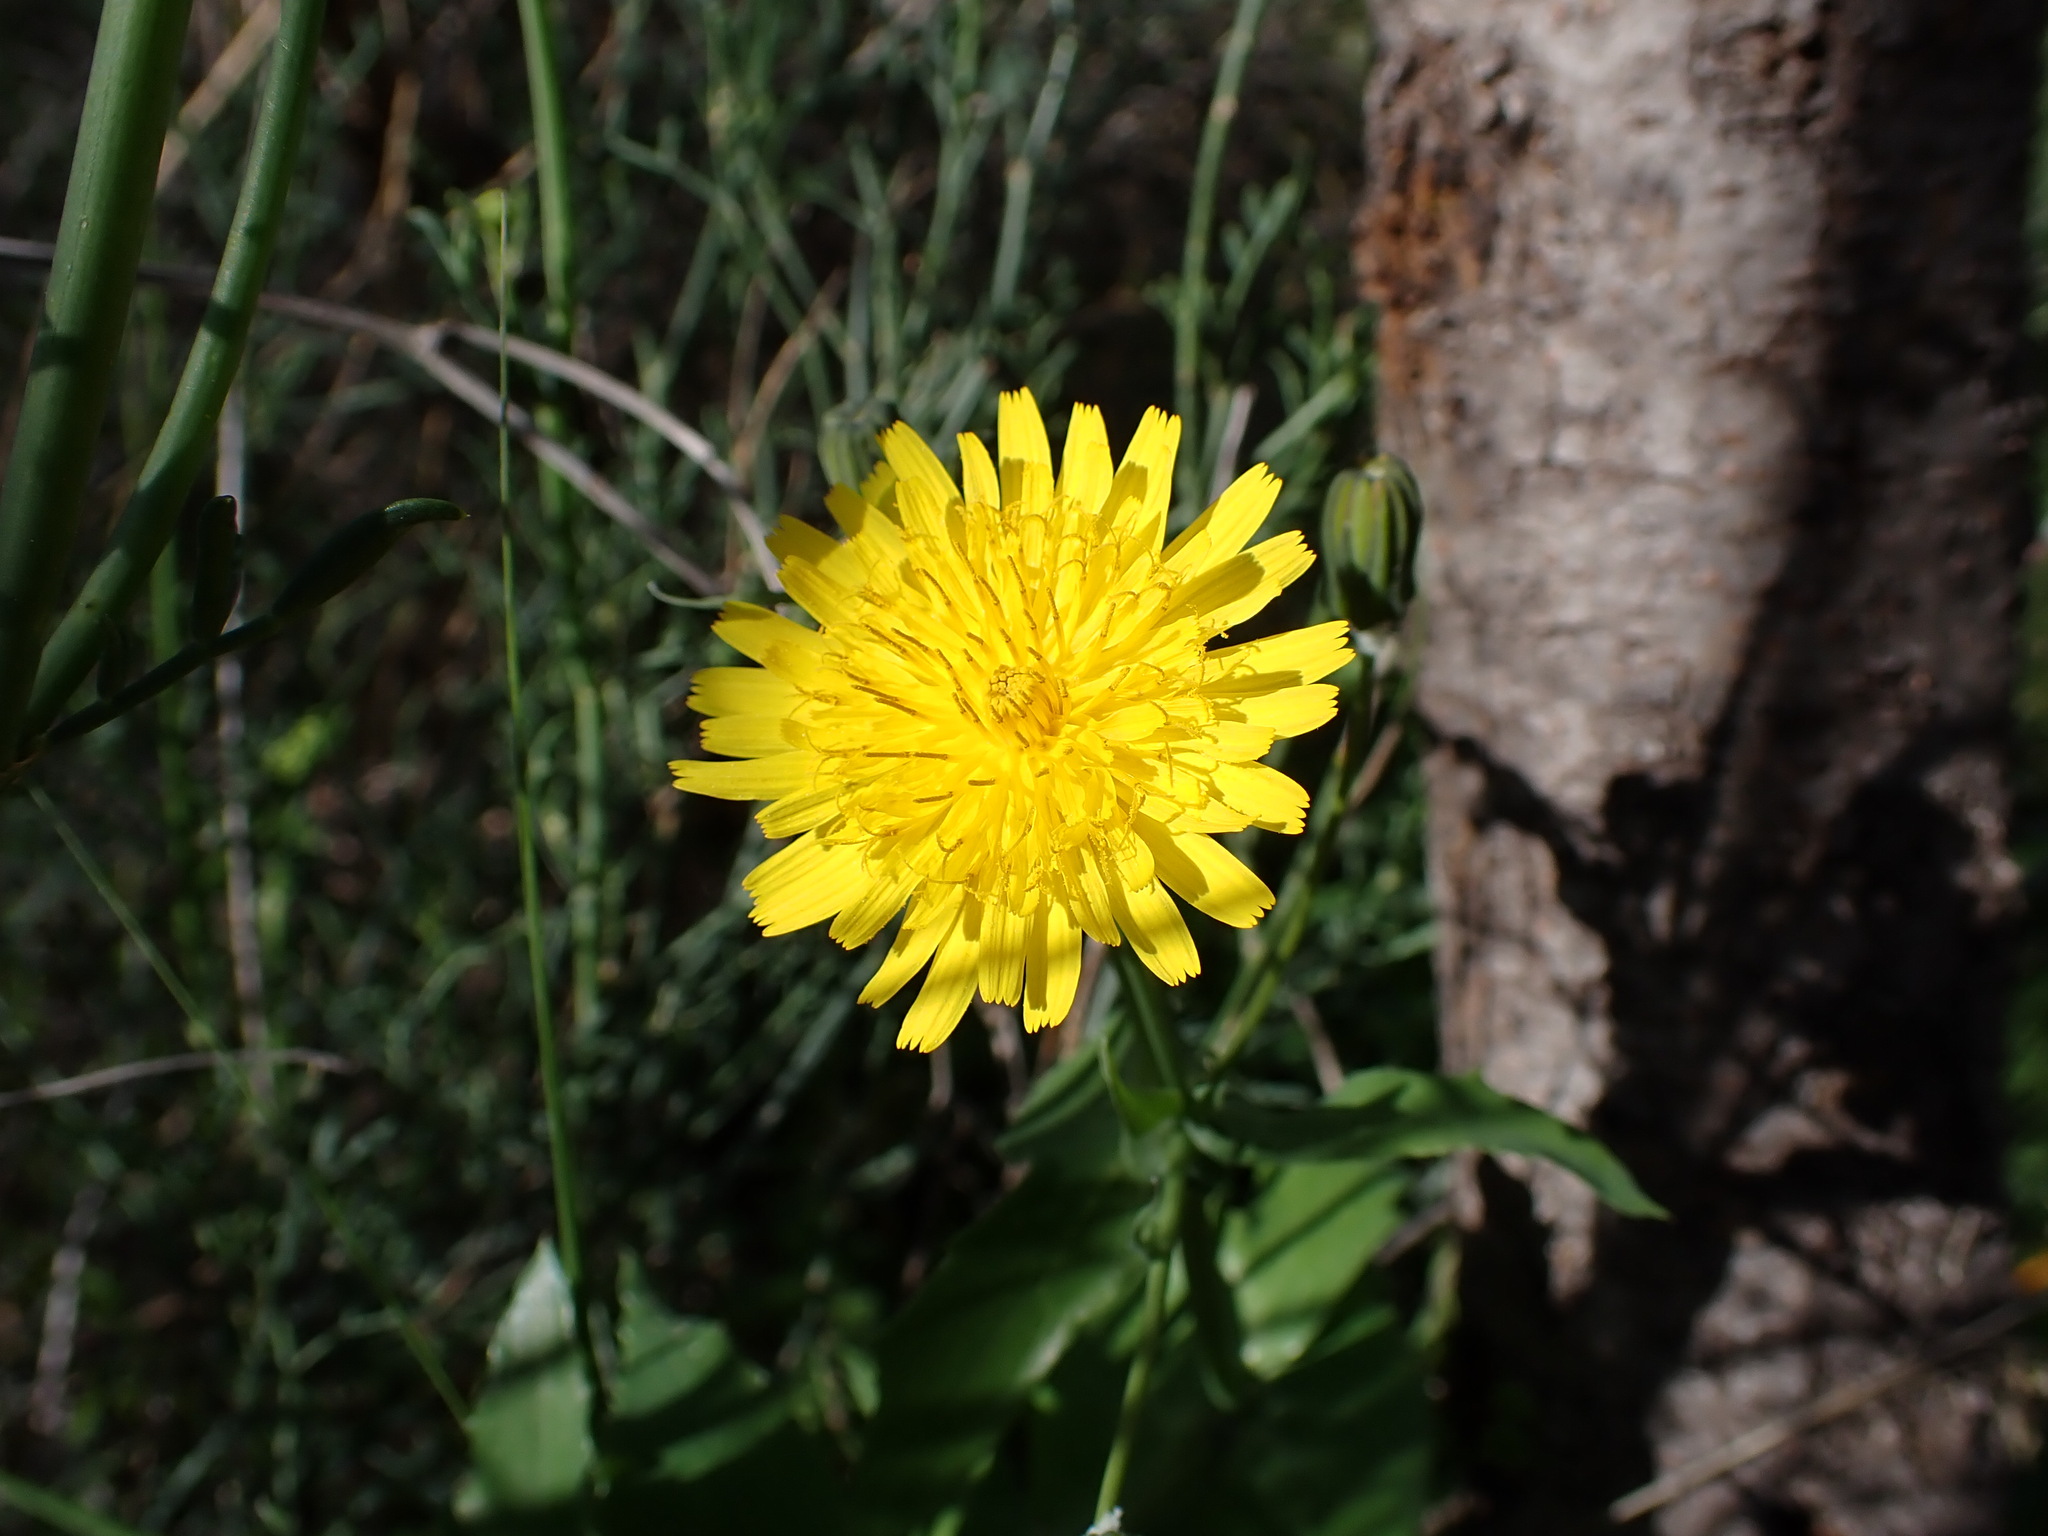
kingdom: Plantae
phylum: Tracheophyta
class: Magnoliopsida
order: Asterales
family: Asteraceae
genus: Sonchus
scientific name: Sonchus tenerrimus
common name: Clammy sowthistle
